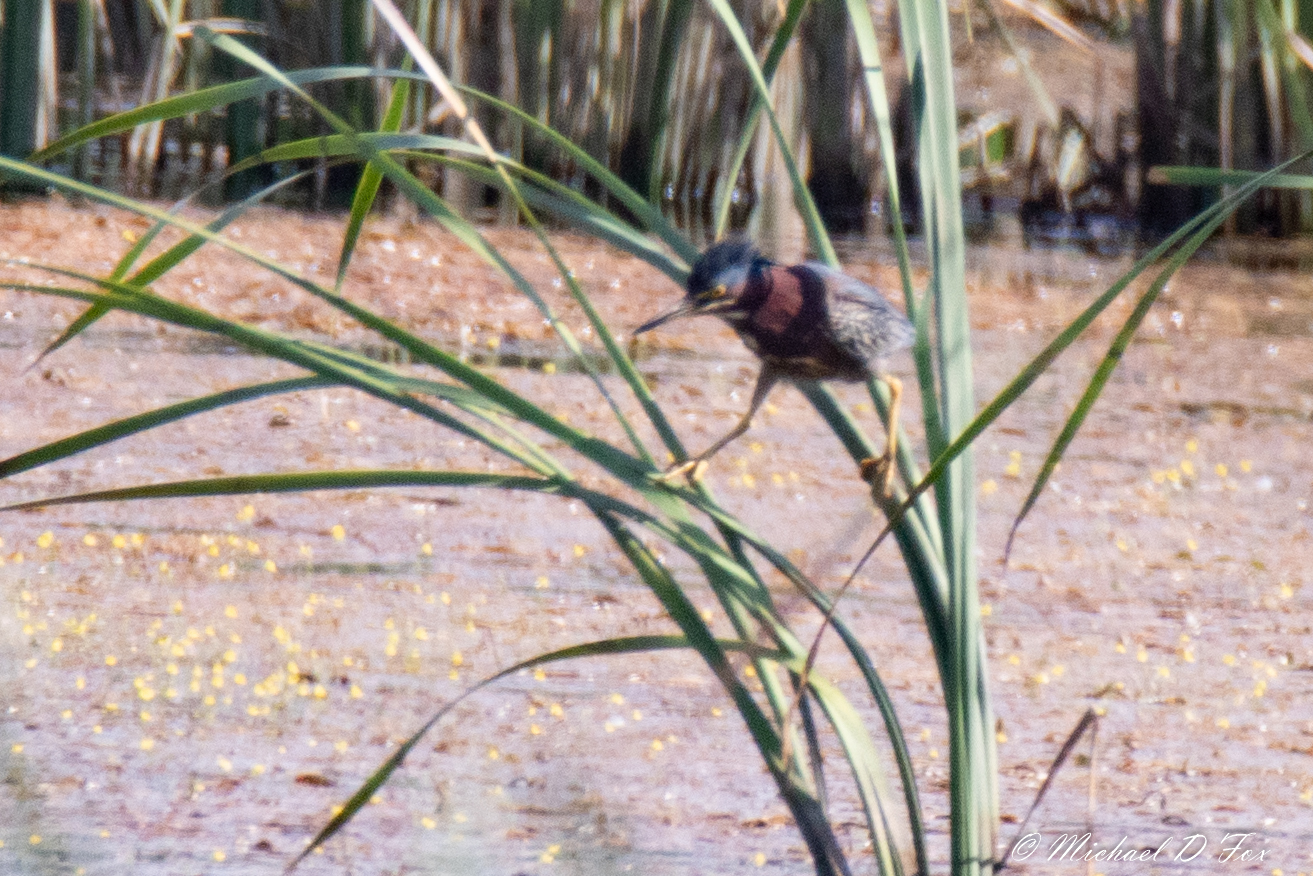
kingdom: Animalia
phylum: Chordata
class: Aves
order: Pelecaniformes
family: Ardeidae
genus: Butorides
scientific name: Butorides virescens
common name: Green heron
